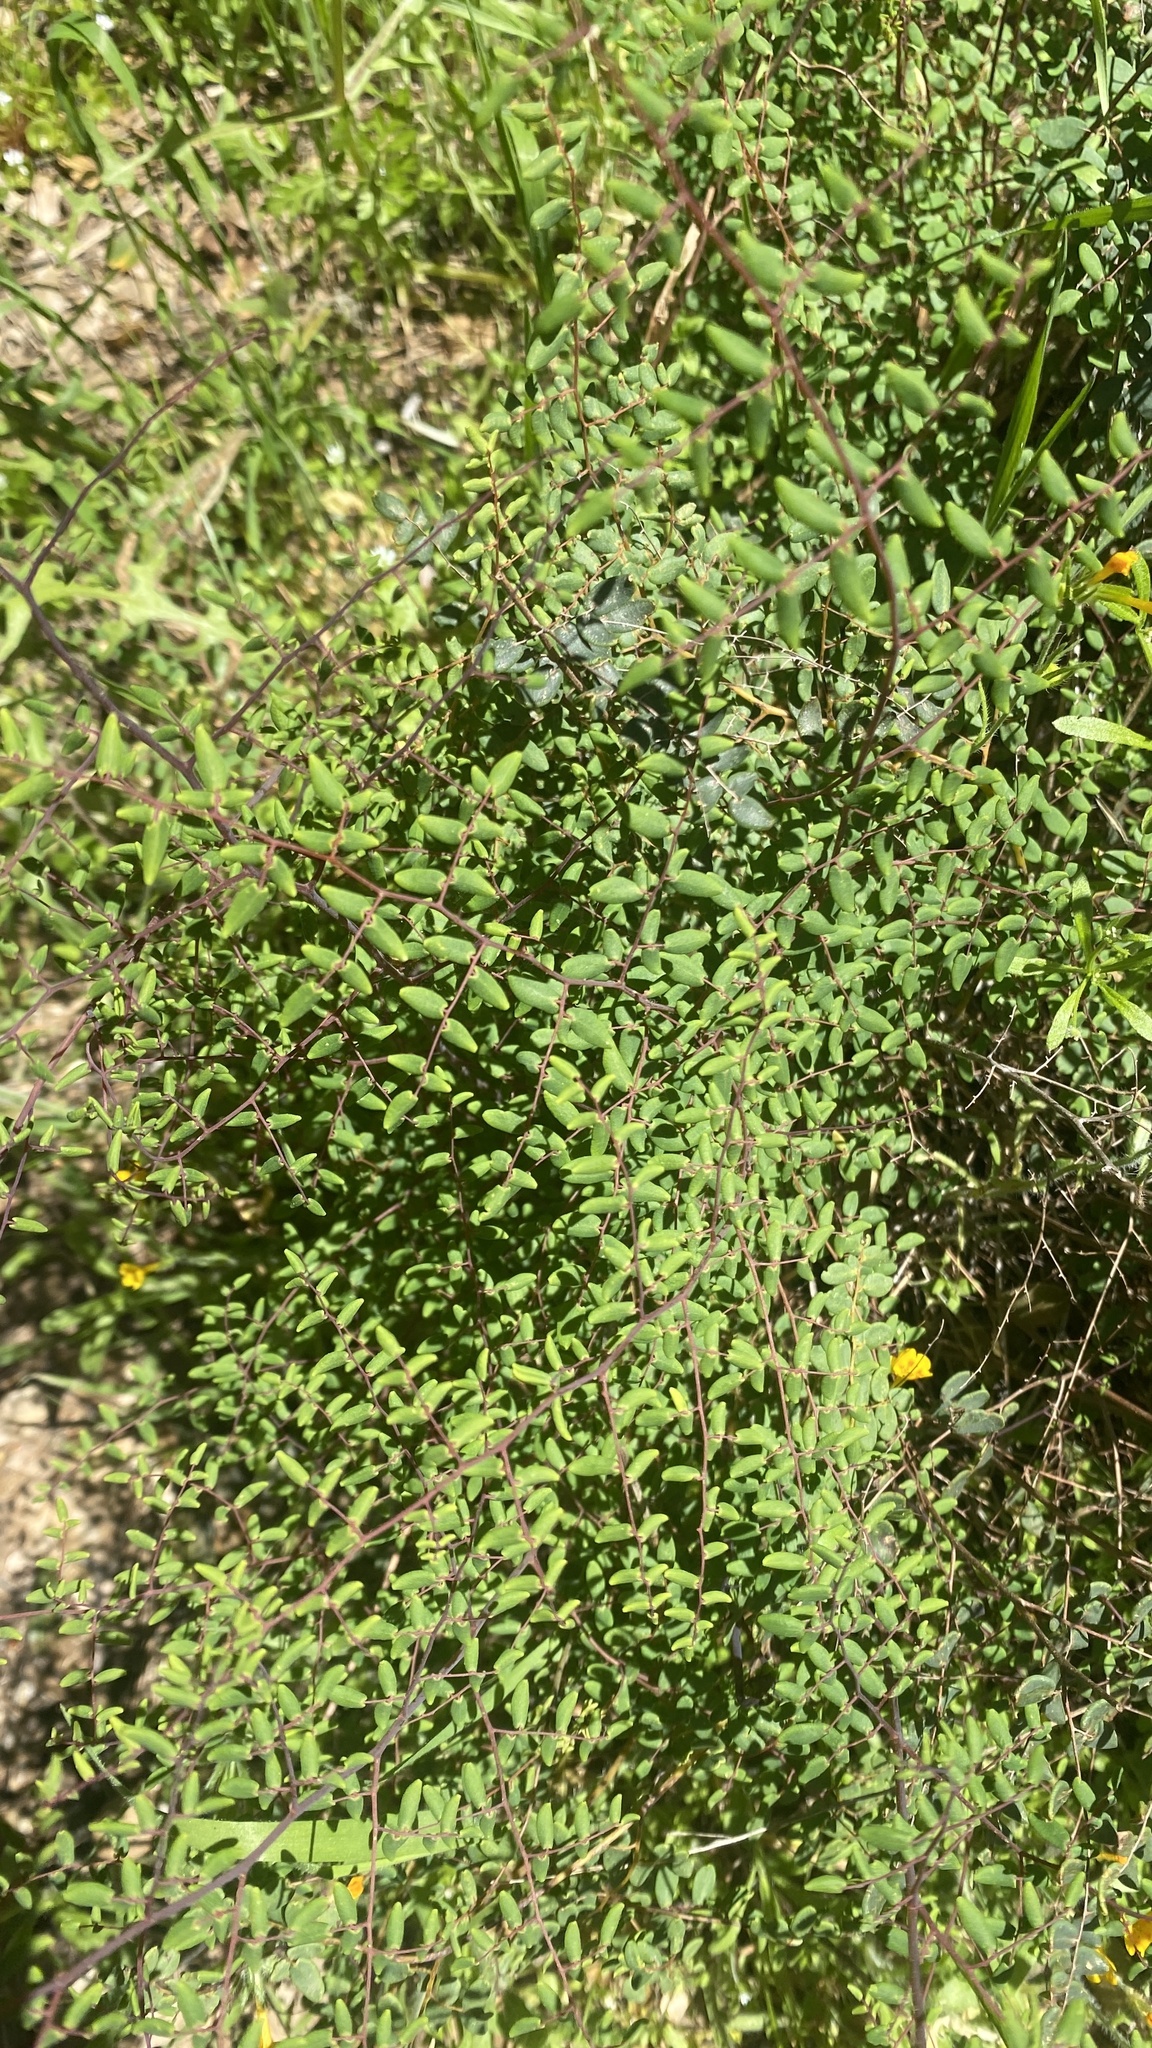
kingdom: Plantae
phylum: Tracheophyta
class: Polypodiopsida
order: Polypodiales
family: Pteridaceae
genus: Pellaea
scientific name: Pellaea andromedifolia
